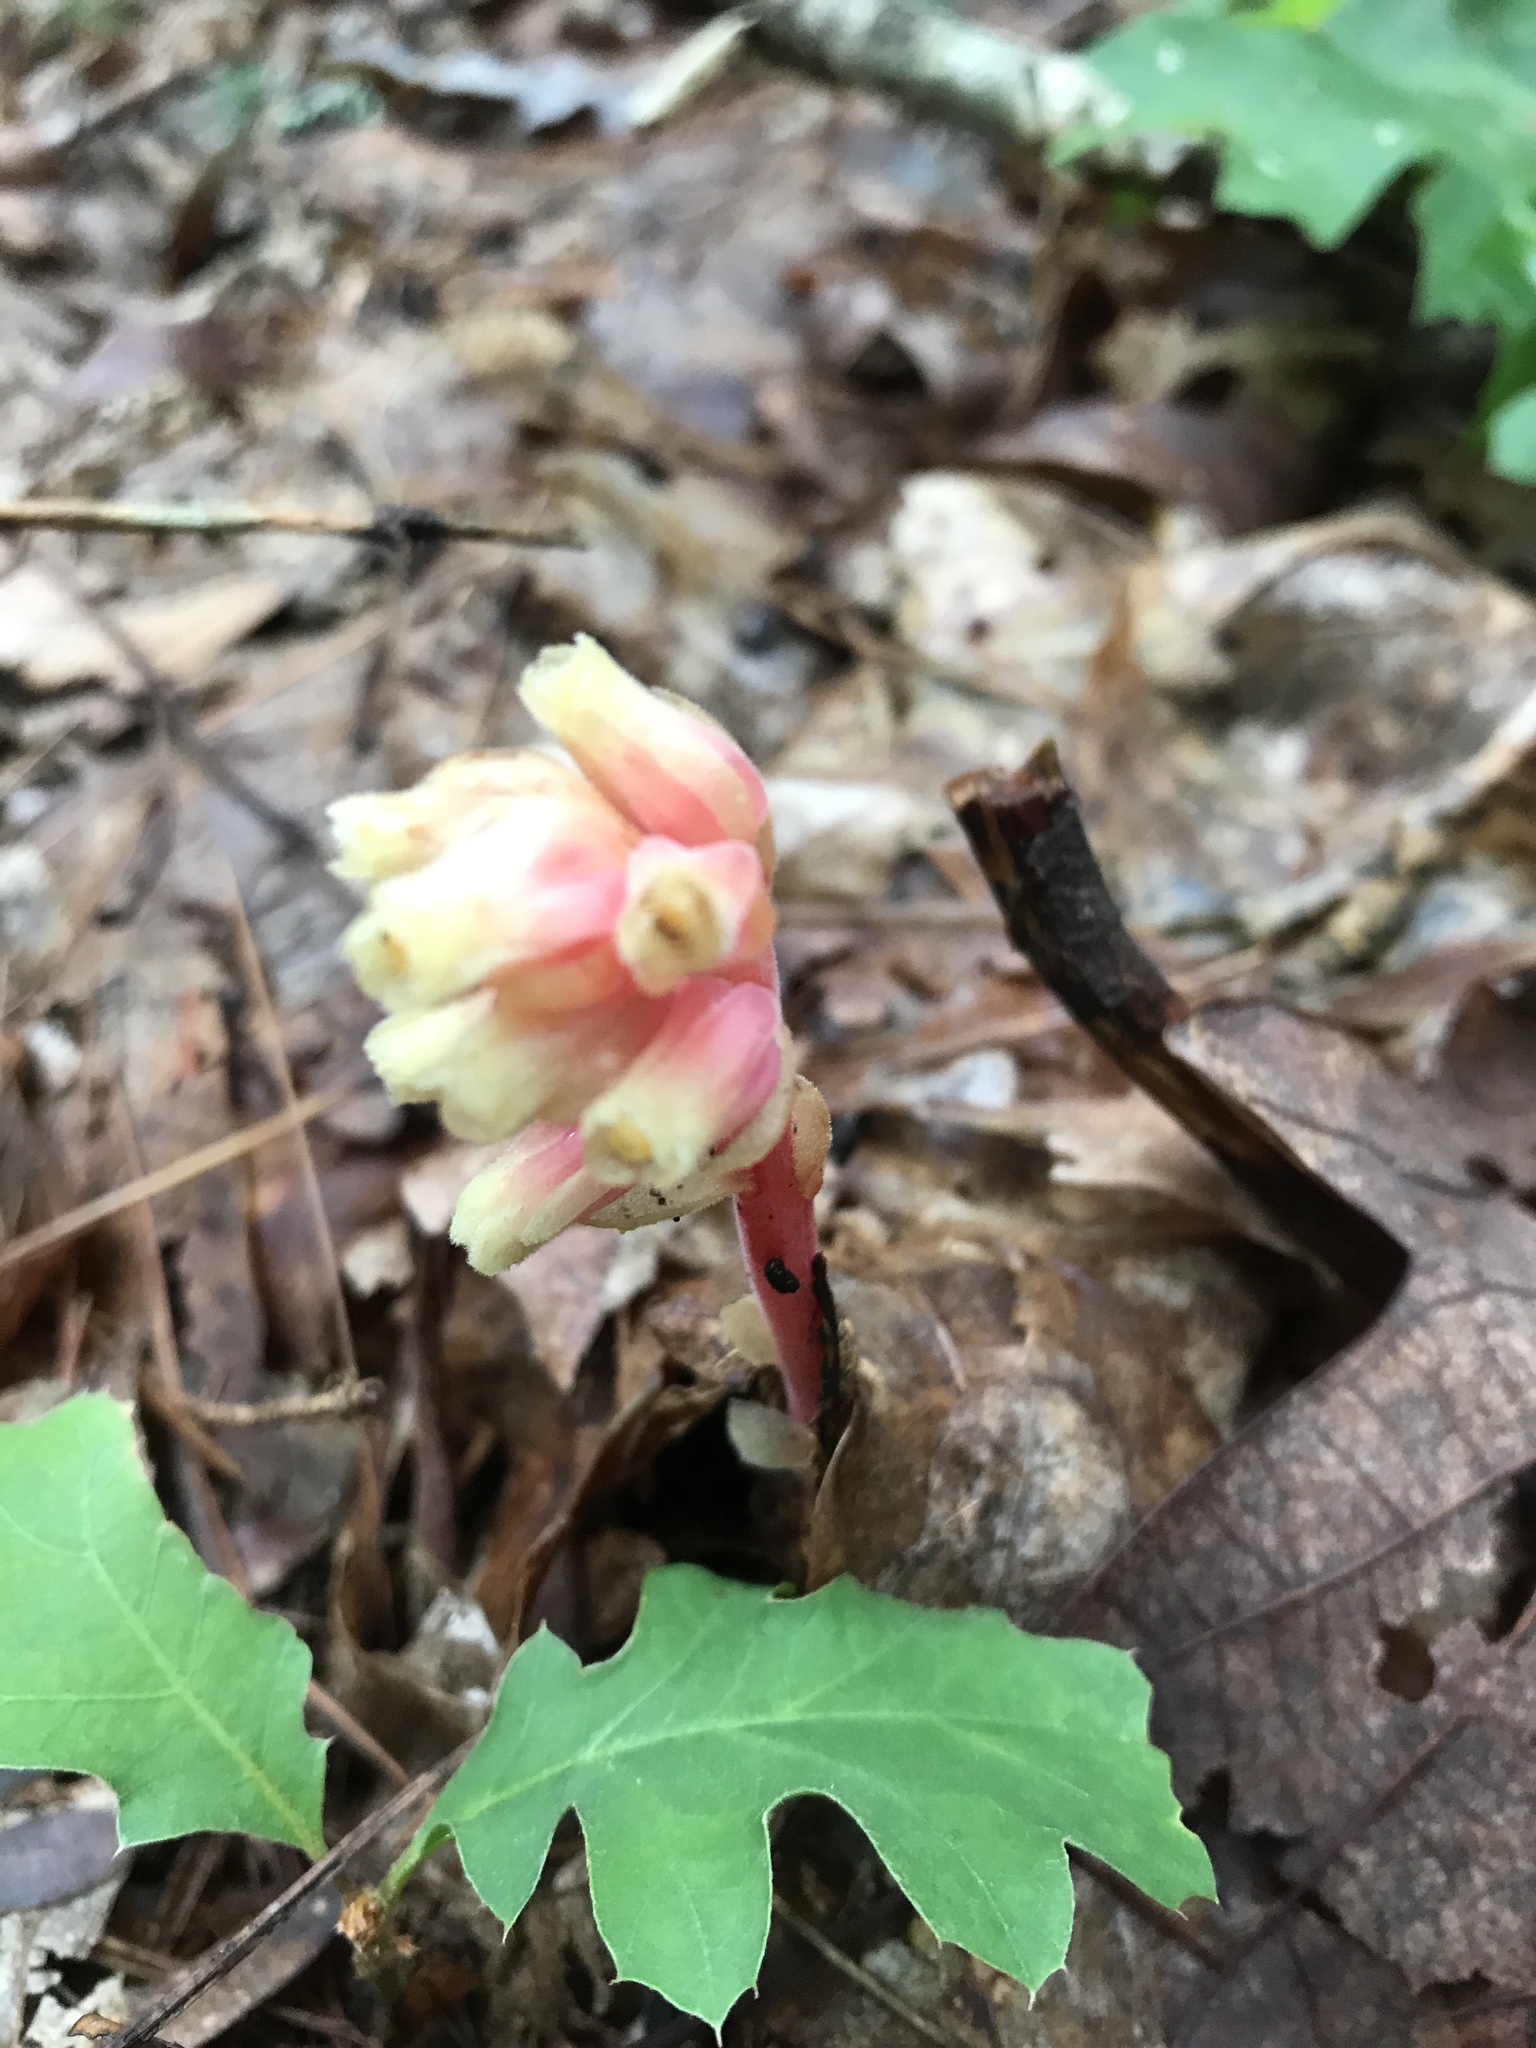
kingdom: Plantae
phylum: Tracheophyta
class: Magnoliopsida
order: Ericales
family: Ericaceae
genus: Hypopitys
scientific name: Hypopitys monotropa
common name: Yellow bird's-nest
